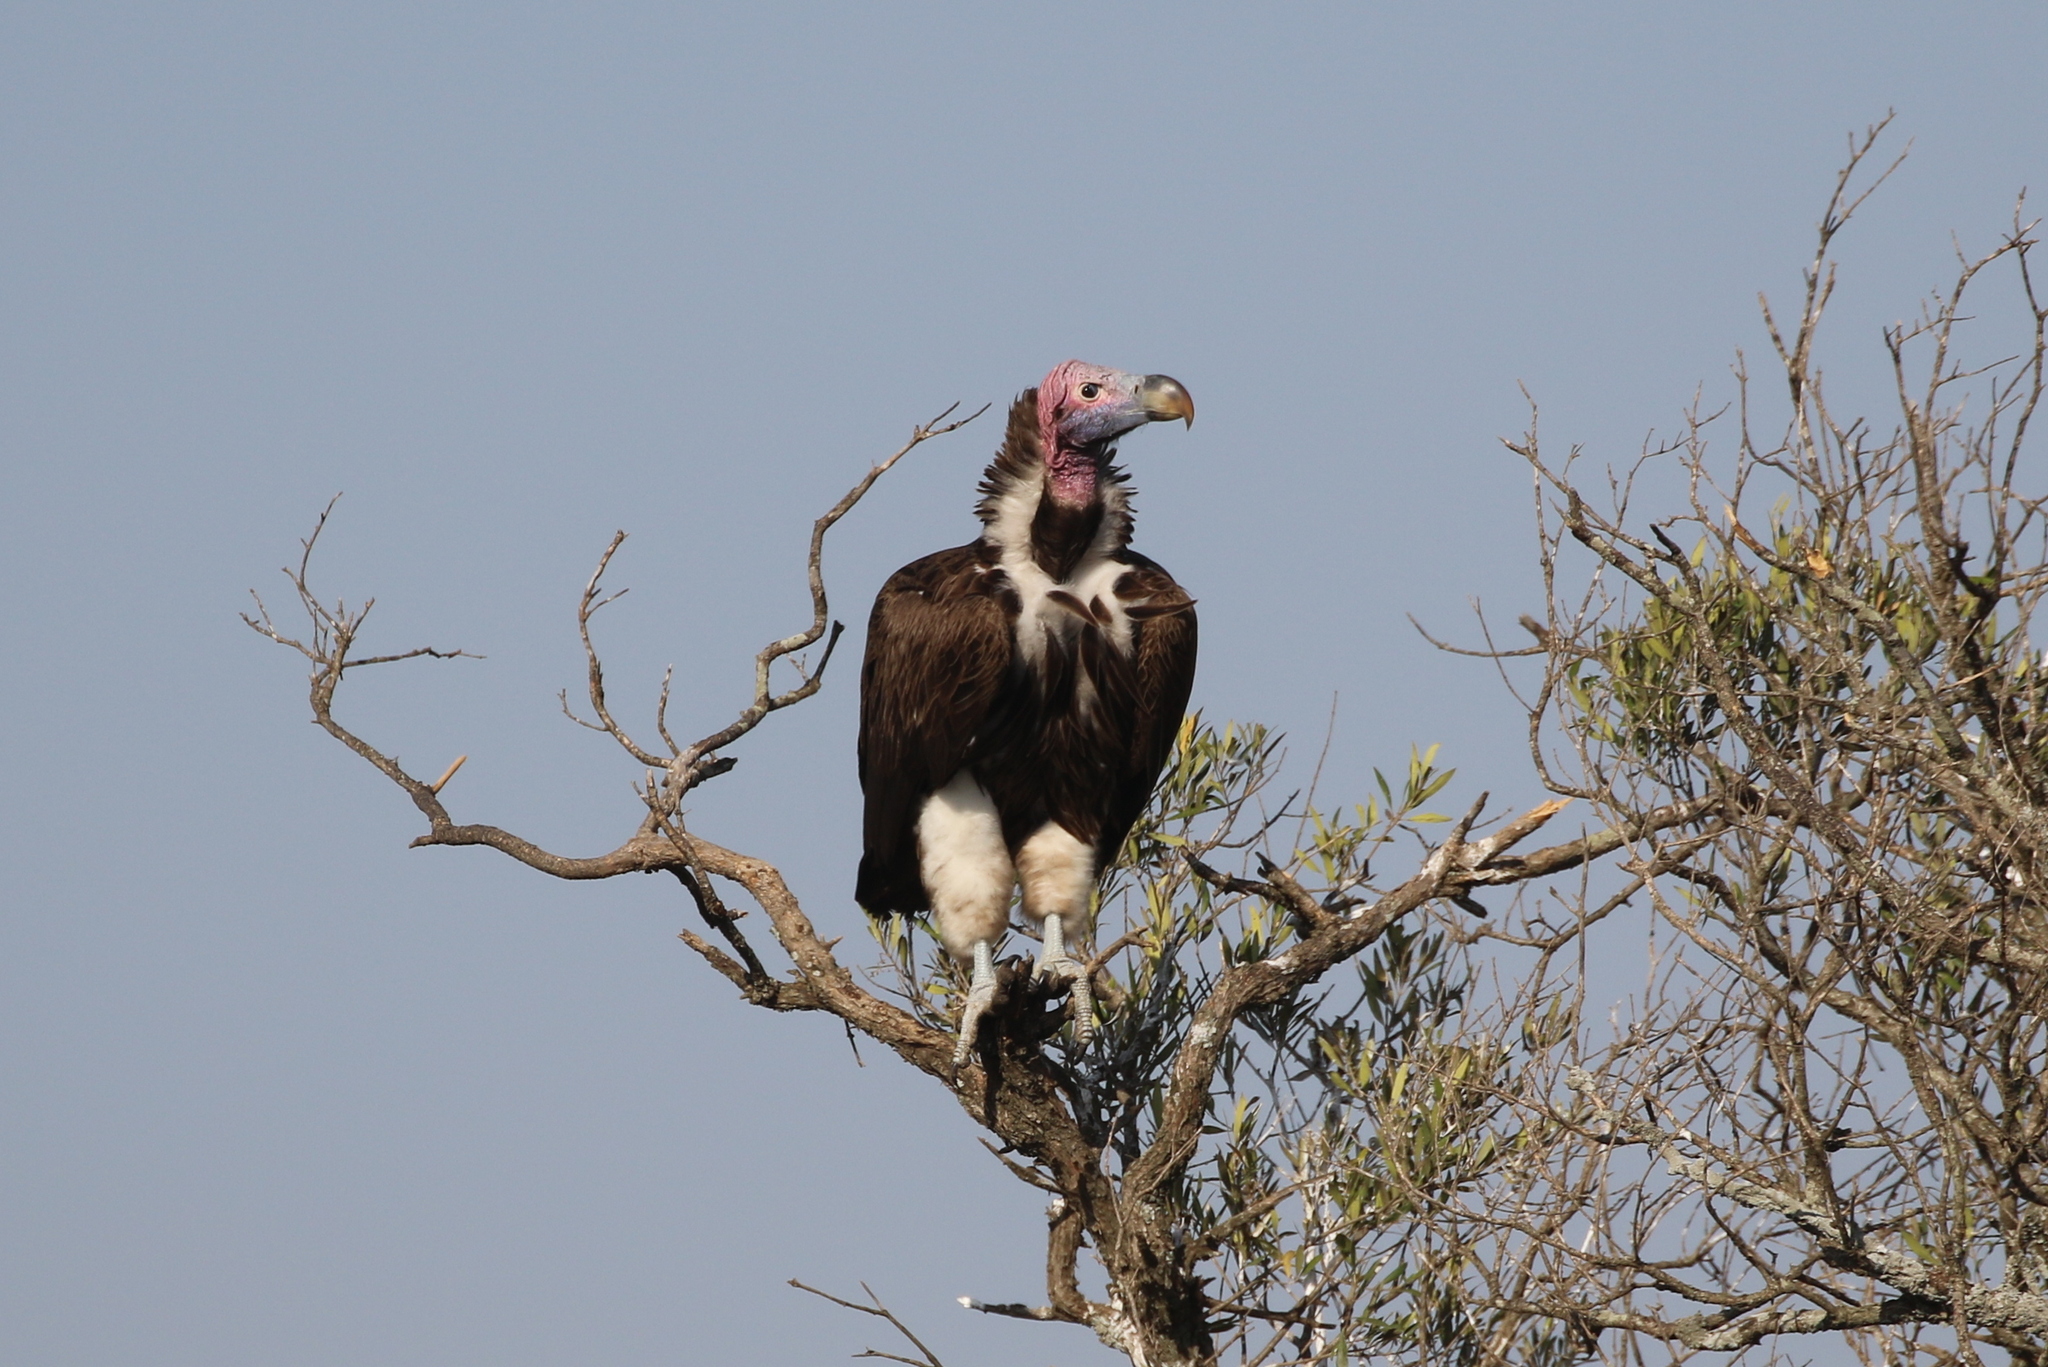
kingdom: Animalia
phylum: Chordata
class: Aves
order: Accipitriformes
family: Accipitridae
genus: Torgos
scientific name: Torgos tracheliotos
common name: Lappet-faced vulture
